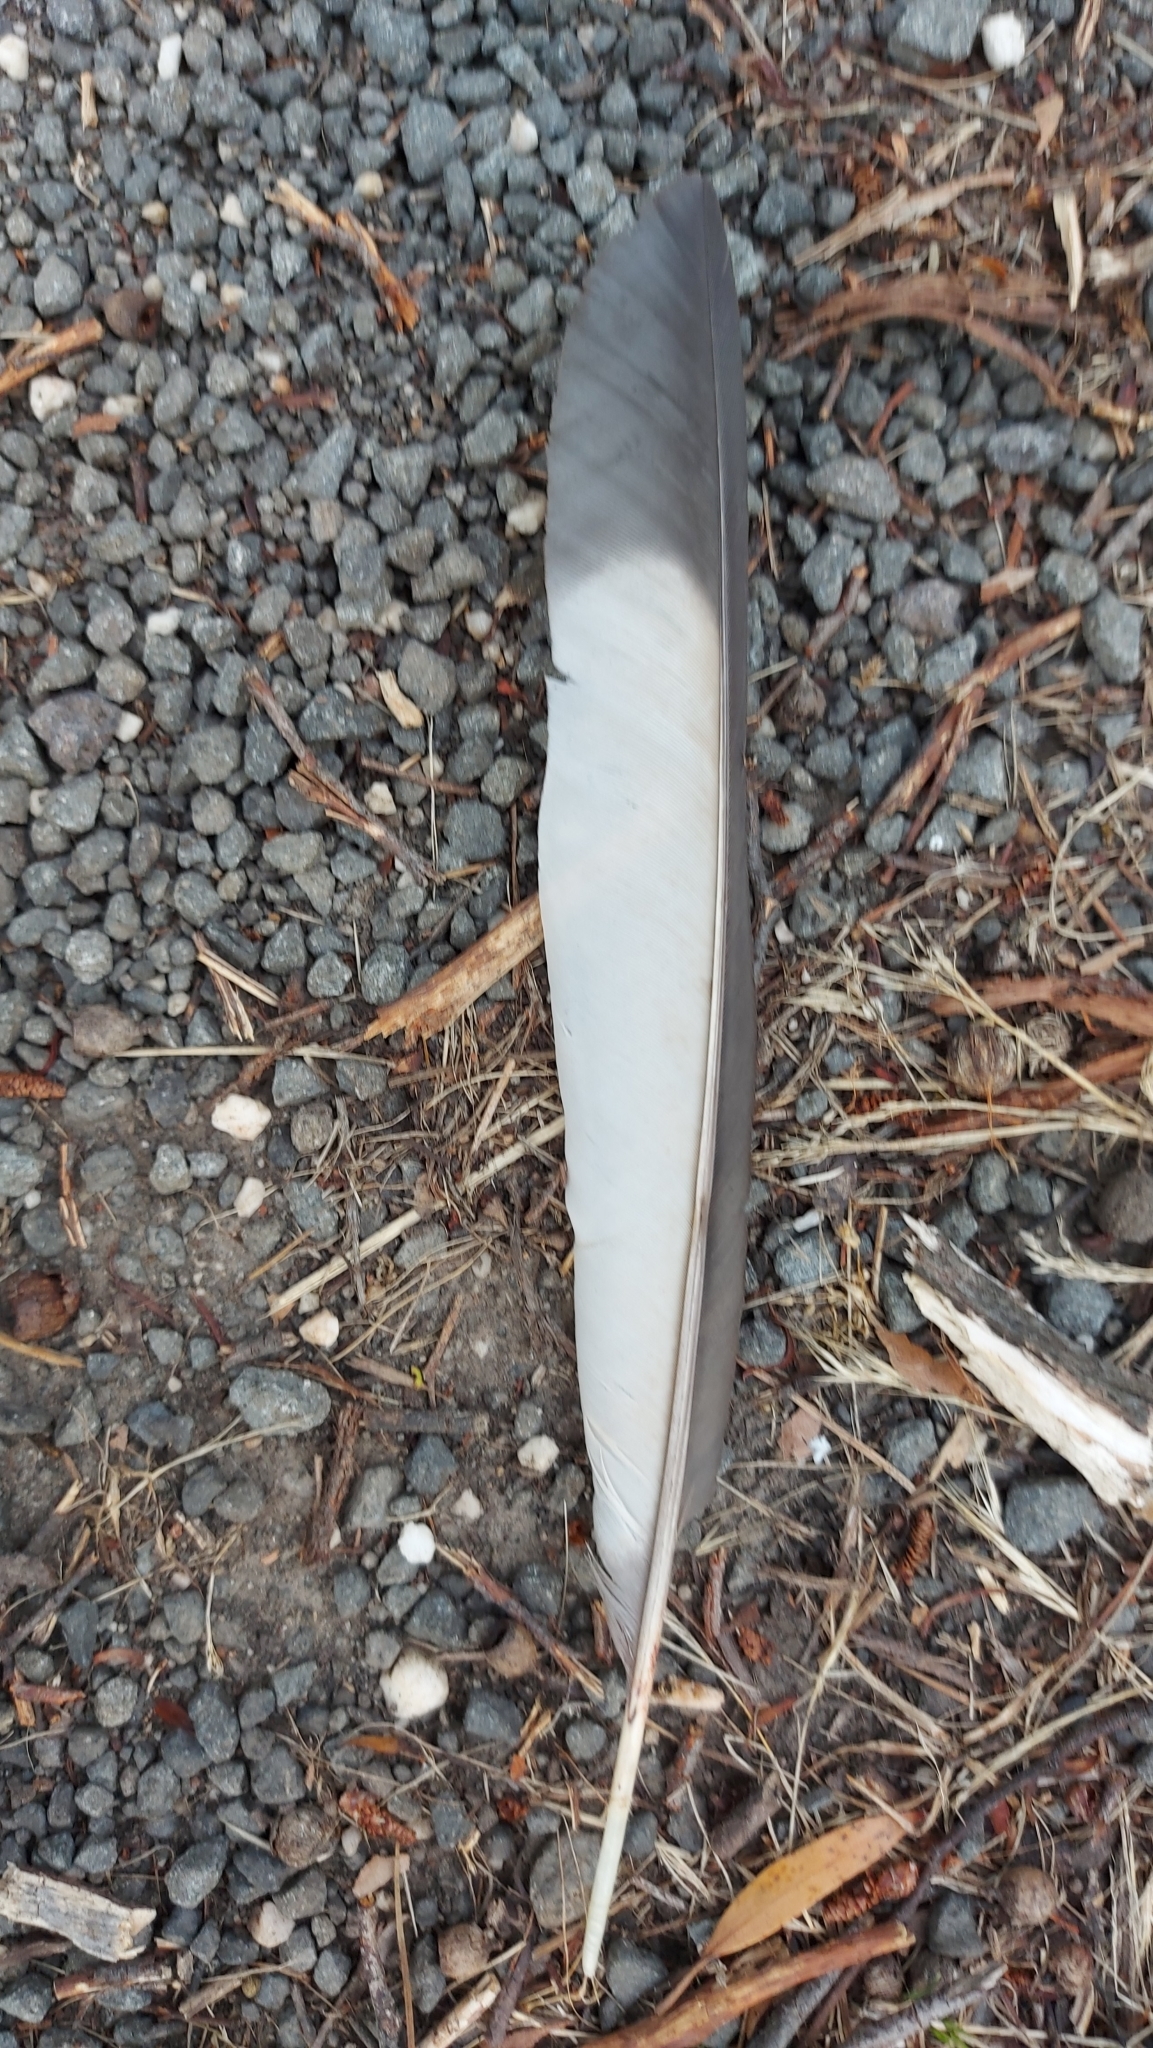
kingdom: Animalia
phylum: Chordata
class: Aves
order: Passeriformes
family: Corcoracidae
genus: Corcorax
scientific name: Corcorax melanoramphos
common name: White-winged chough
